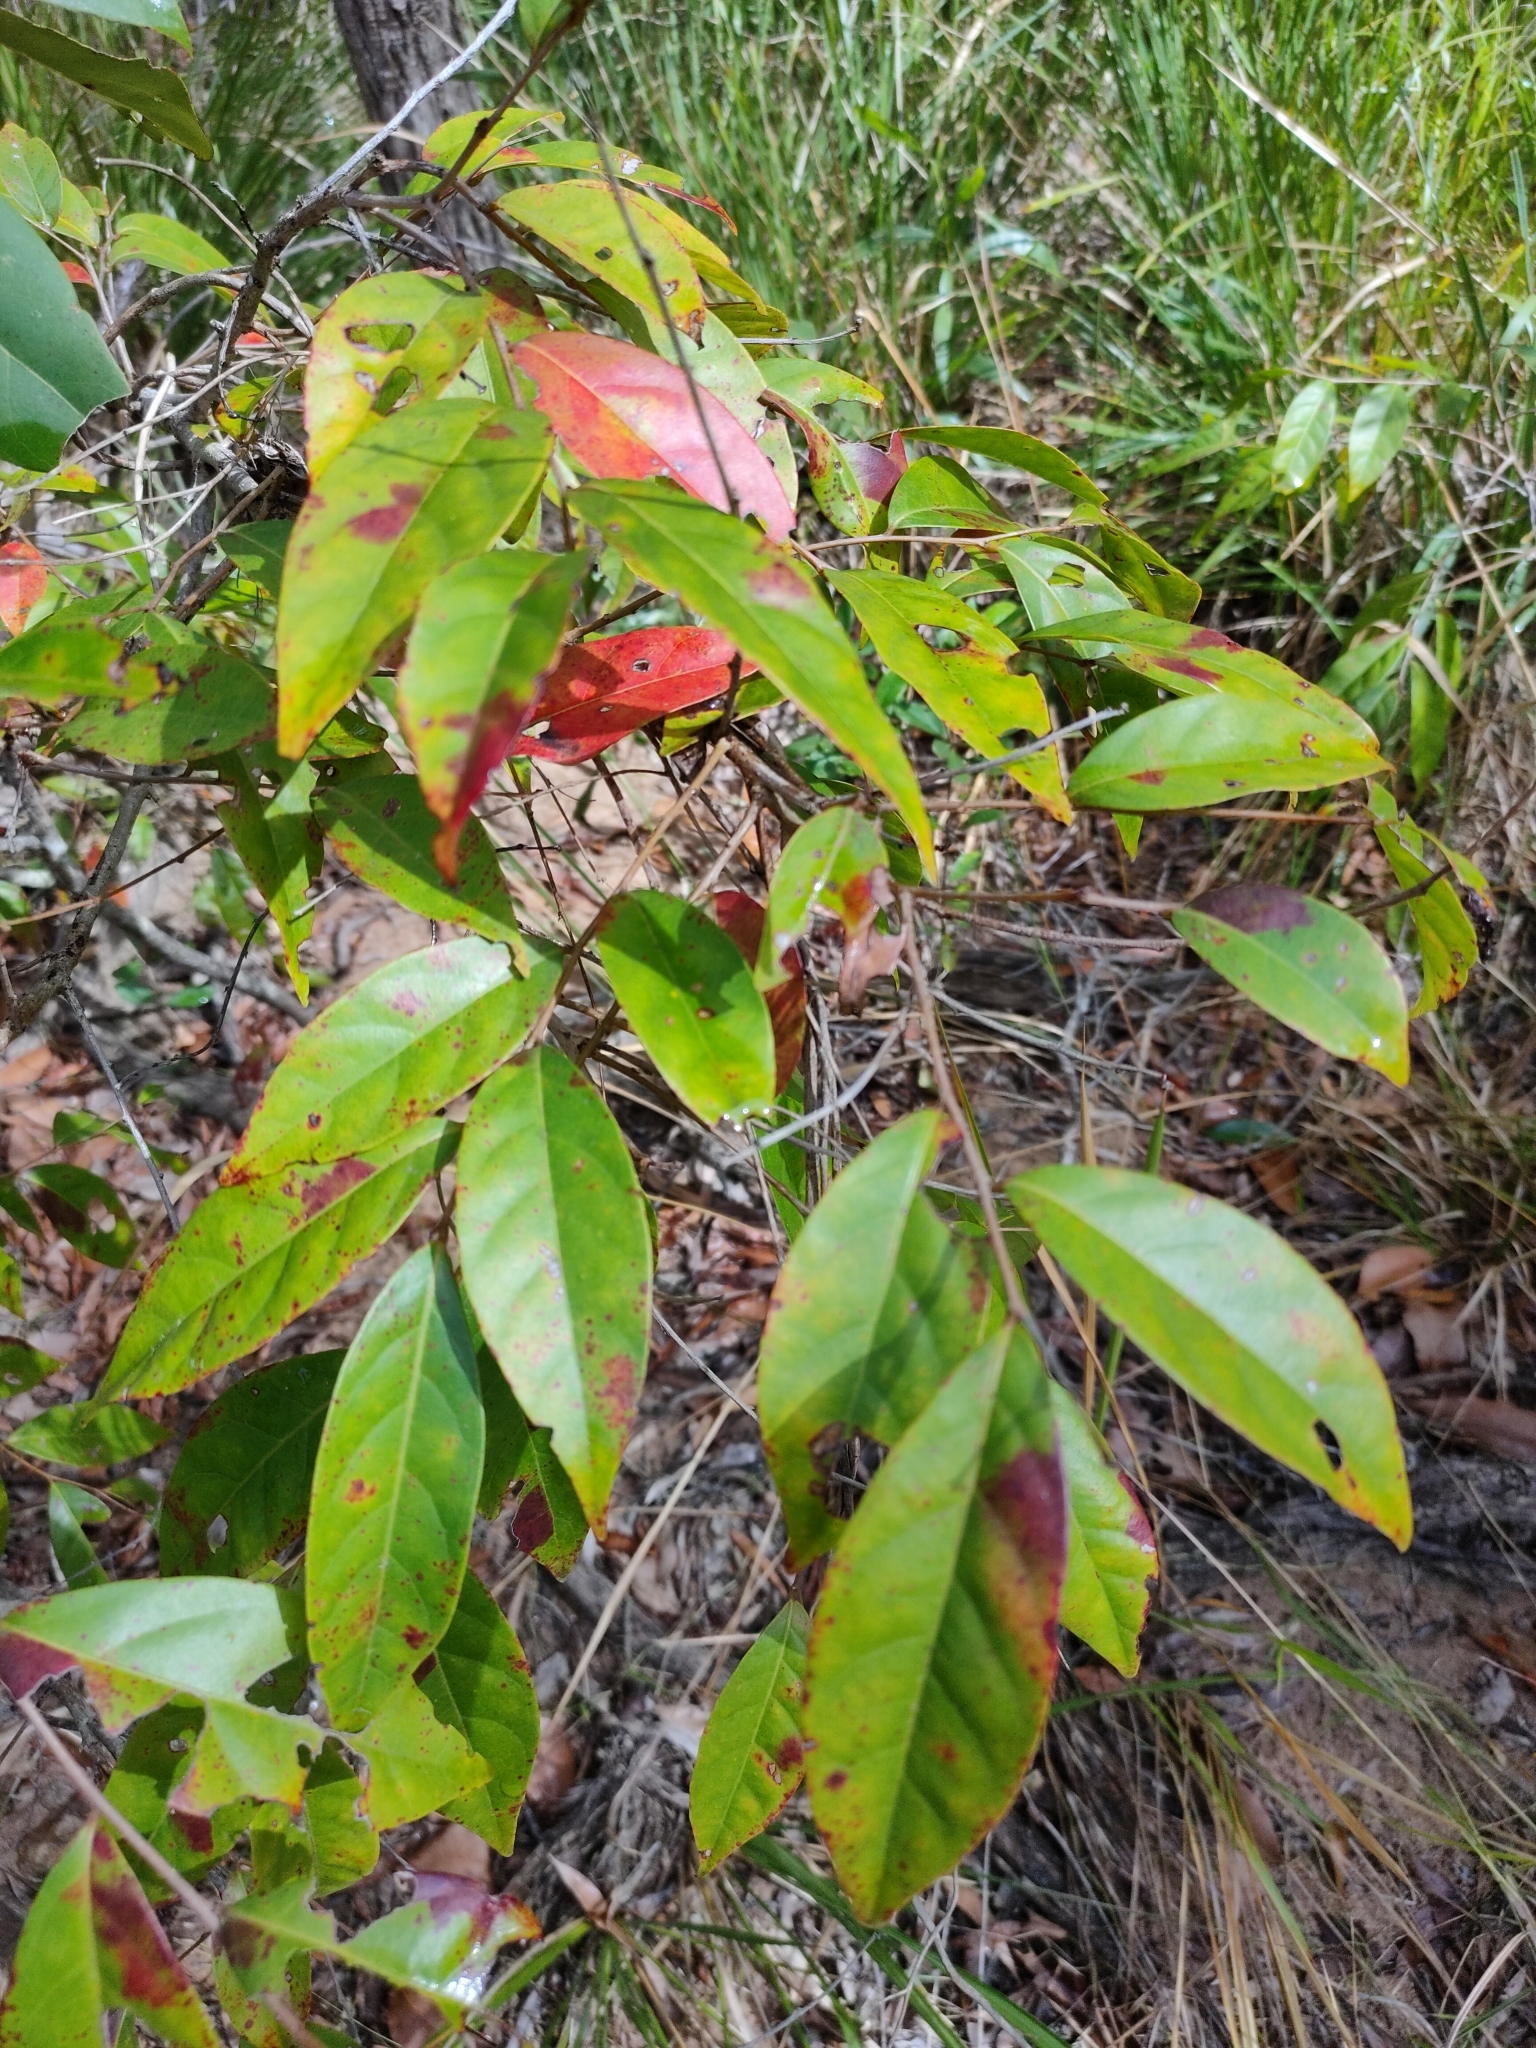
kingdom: Plantae
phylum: Tracheophyta
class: Magnoliopsida
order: Malpighiales
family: Phyllanthaceae
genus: Glochidion
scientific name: Glochidion ferdinandi
